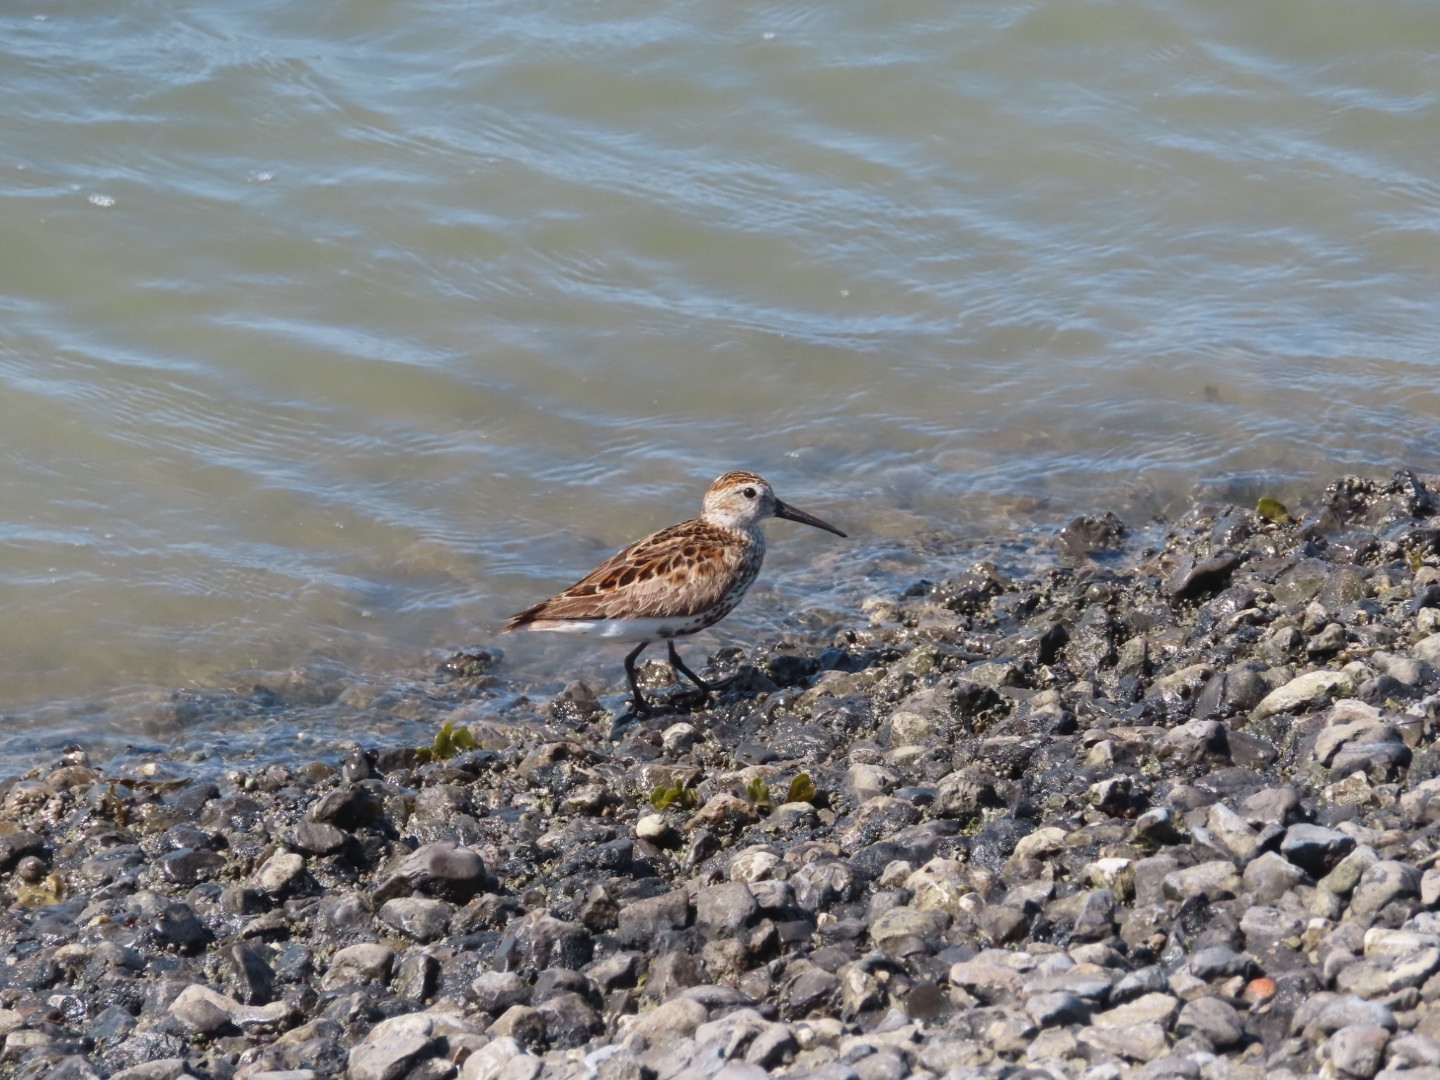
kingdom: Animalia
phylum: Chordata
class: Aves
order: Charadriiformes
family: Scolopacidae
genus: Calidris
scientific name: Calidris alpina
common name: Dunlin
